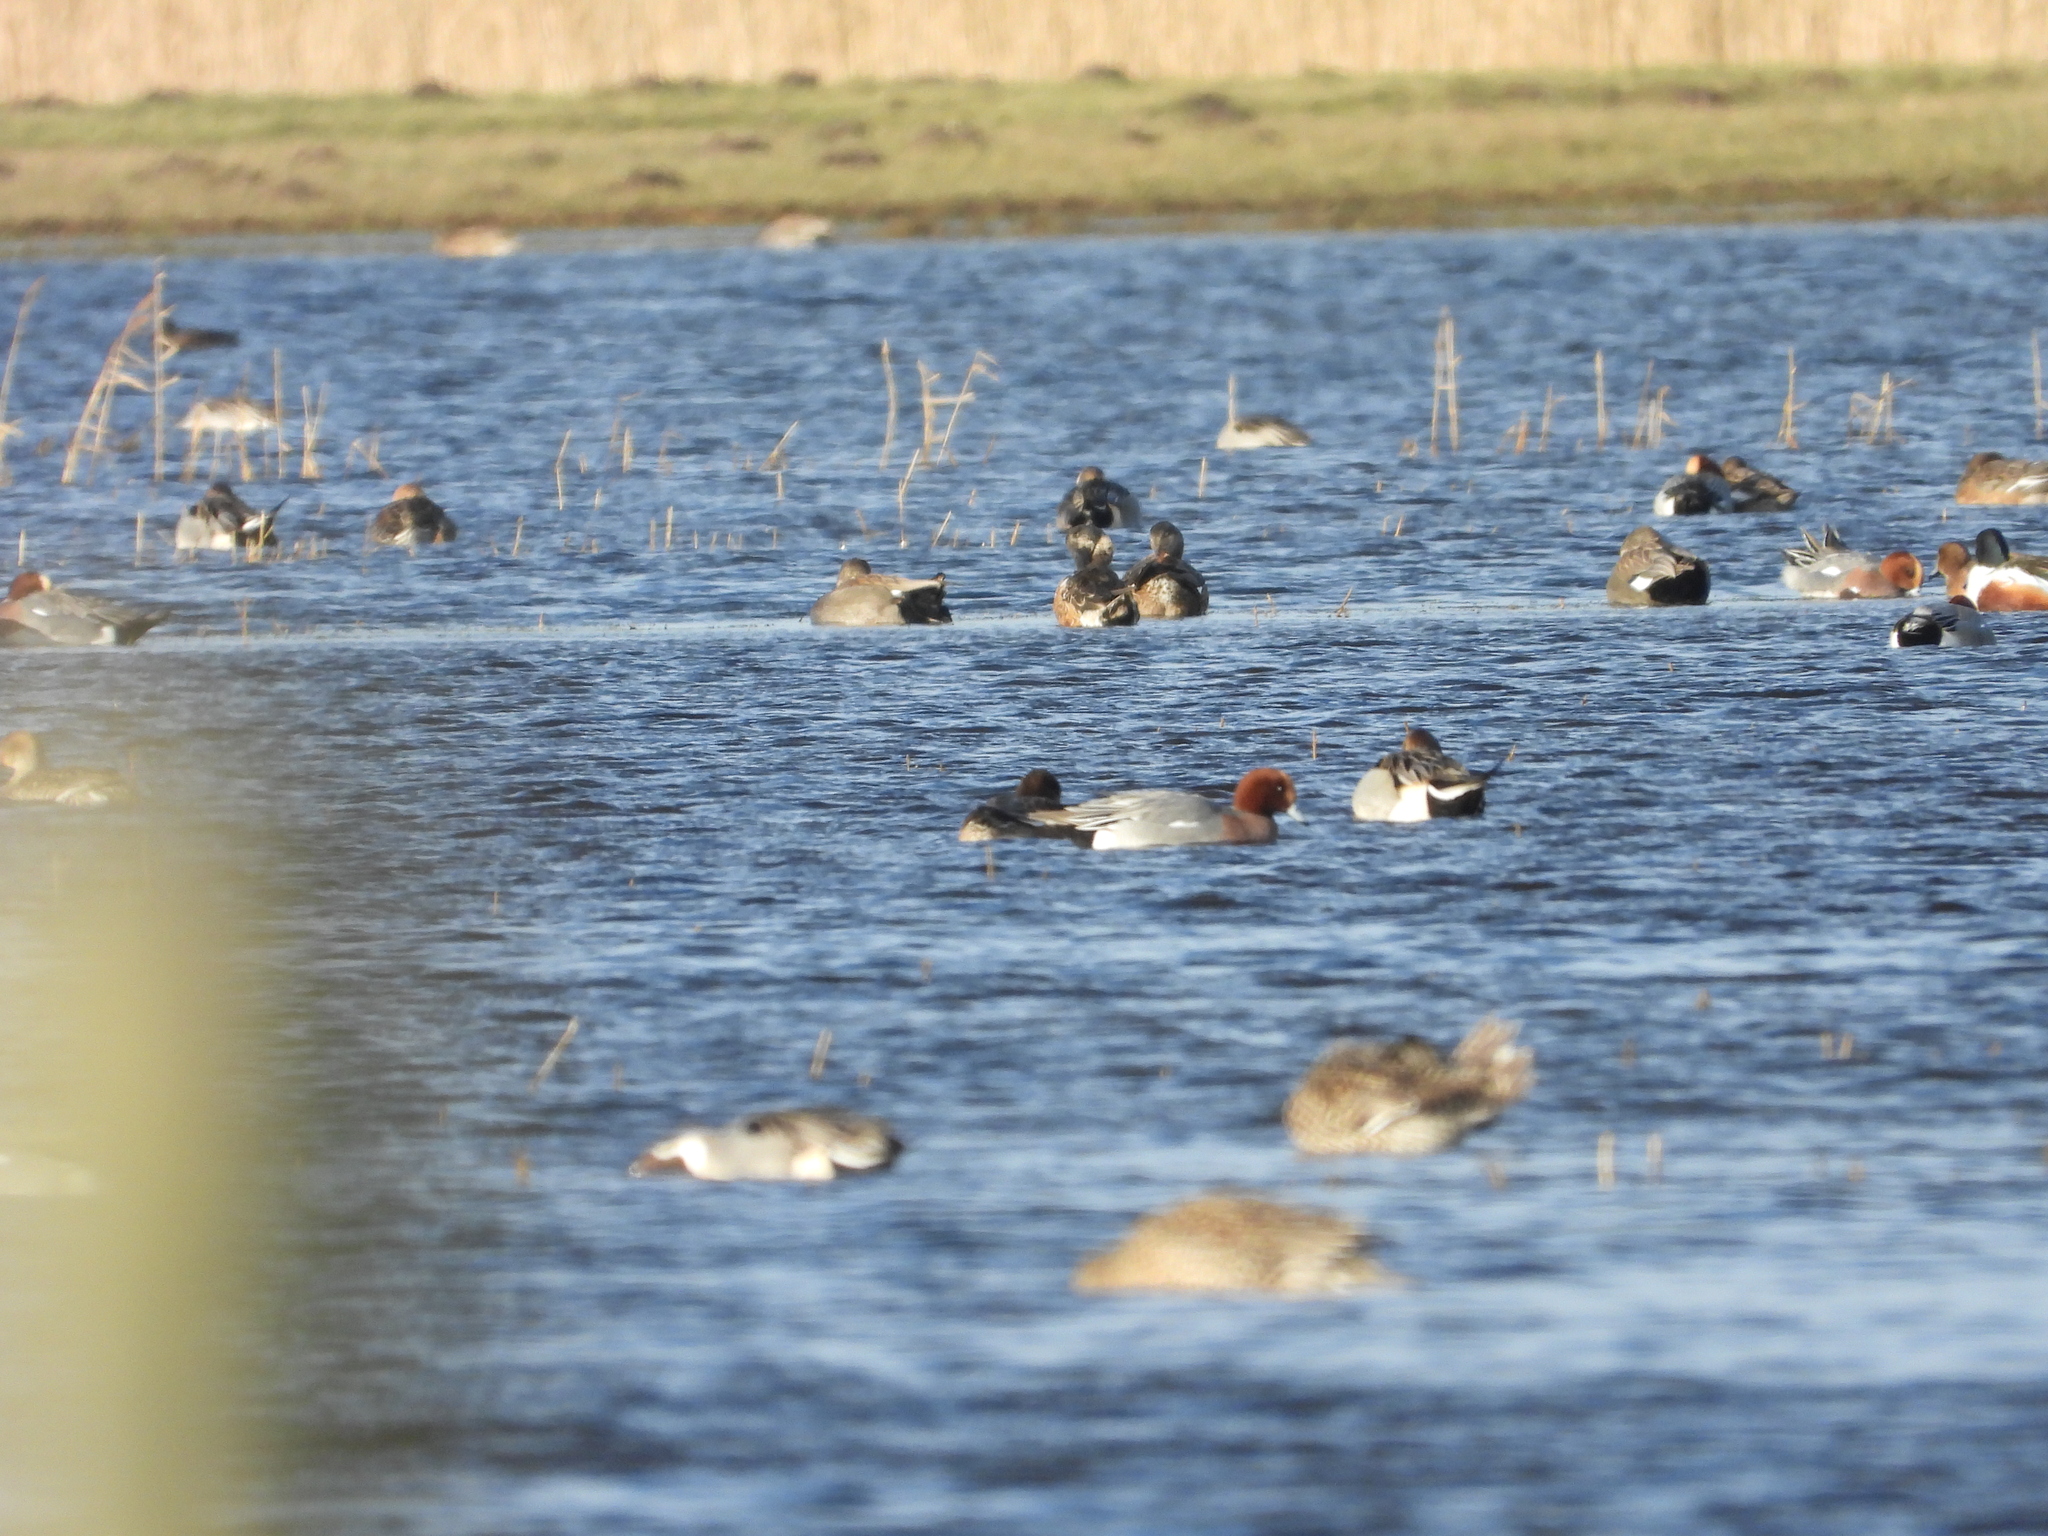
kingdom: Animalia
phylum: Chordata
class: Aves
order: Anseriformes
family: Anatidae
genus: Mareca
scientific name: Mareca penelope
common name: Eurasian wigeon
